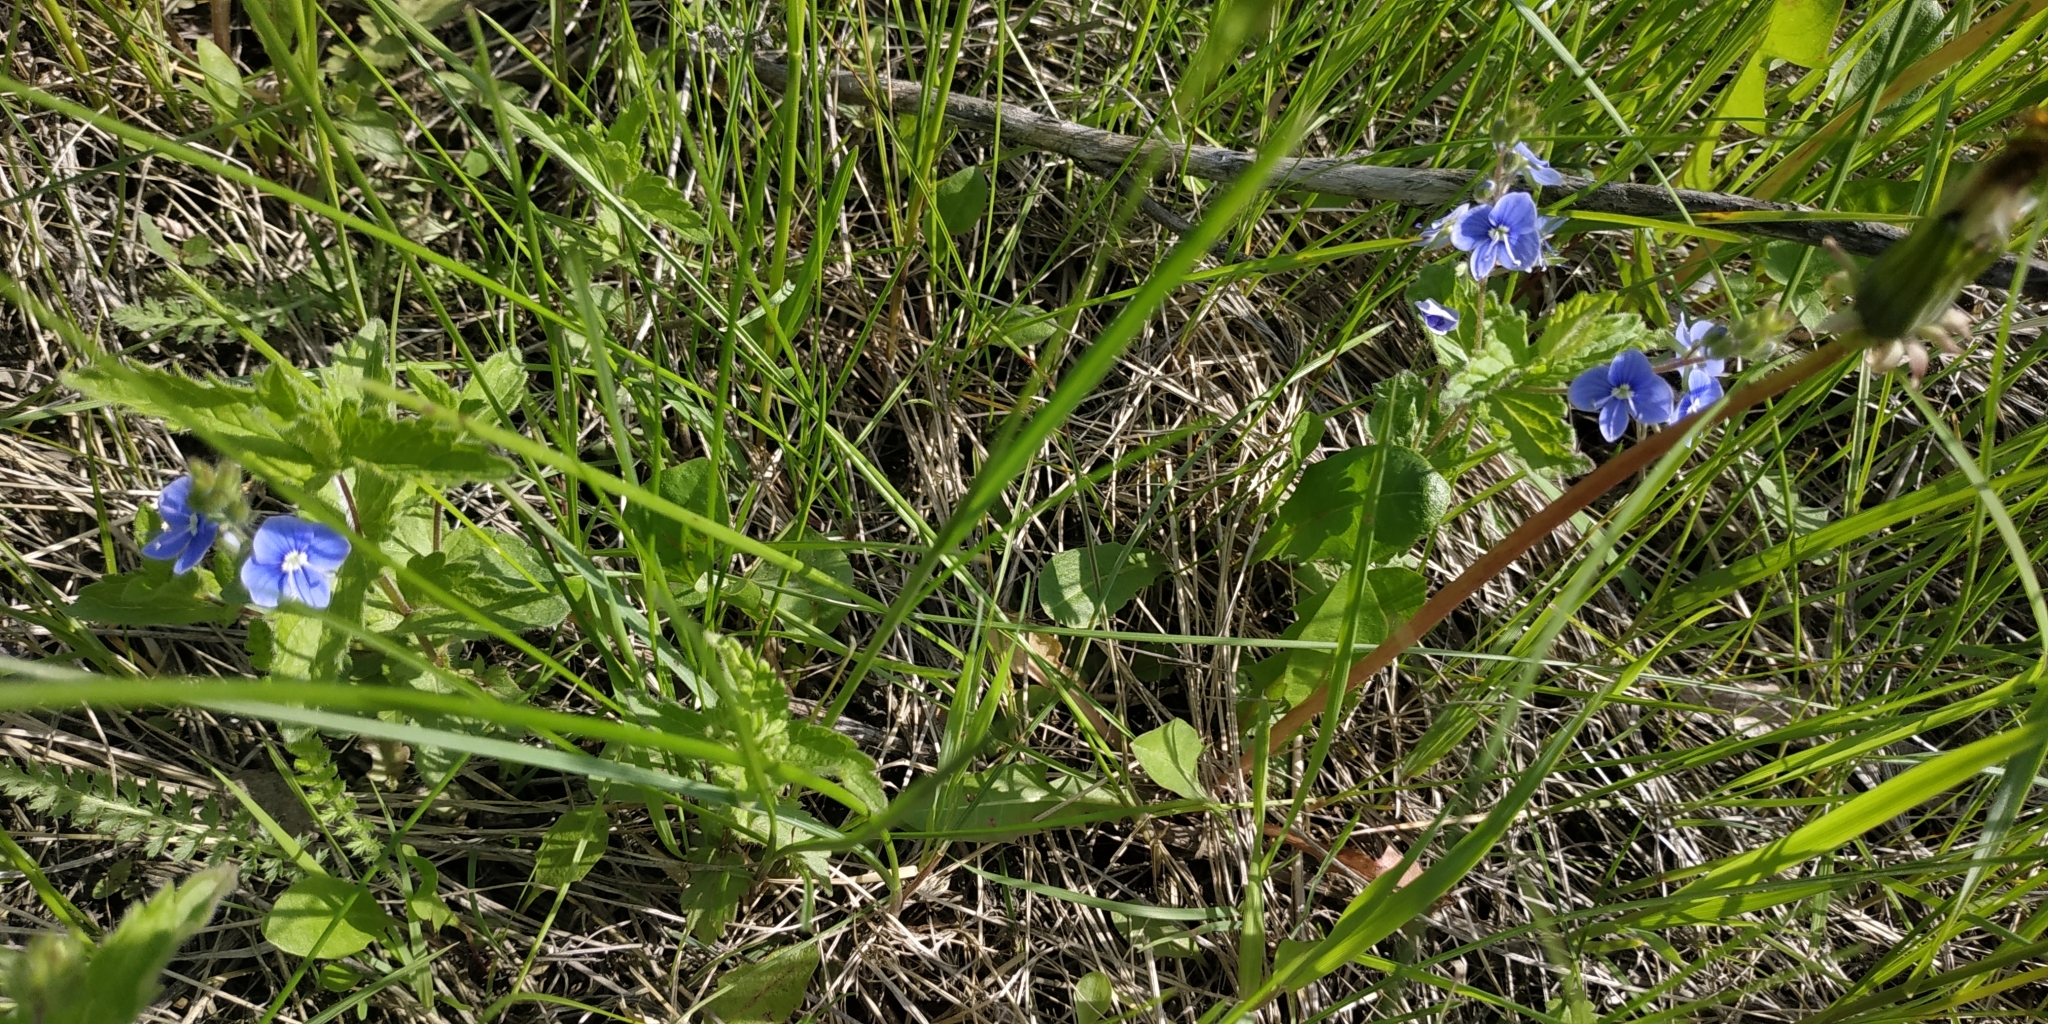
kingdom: Plantae
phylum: Tracheophyta
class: Magnoliopsida
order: Lamiales
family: Plantaginaceae
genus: Veronica
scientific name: Veronica chamaedrys
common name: Germander speedwell
